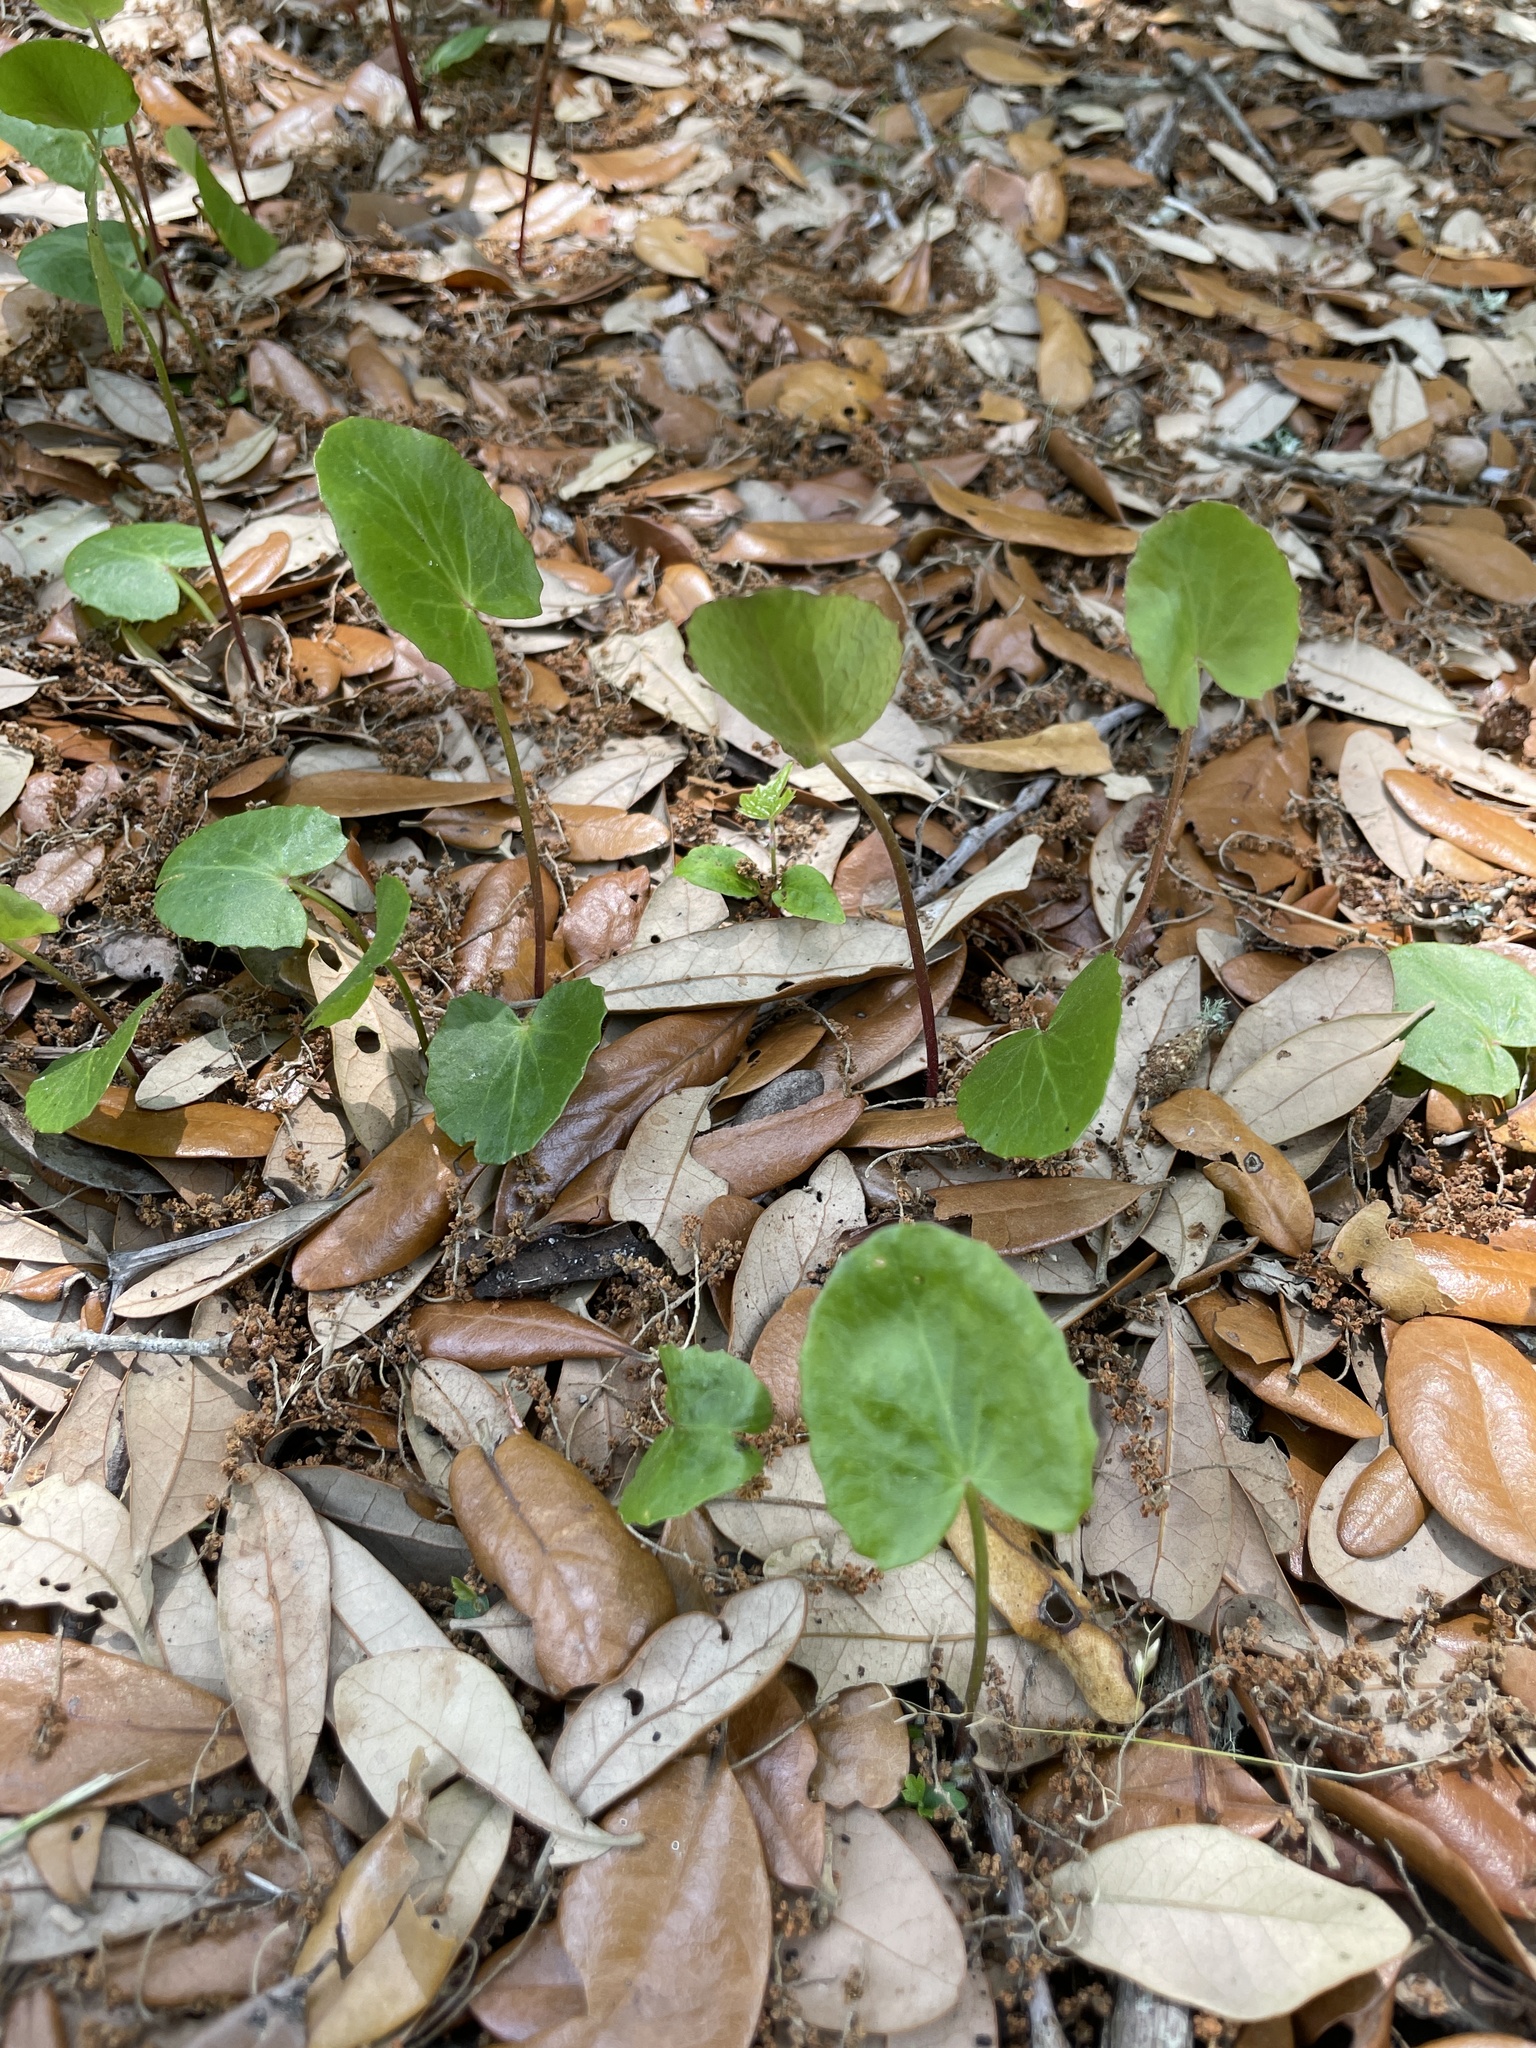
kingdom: Plantae
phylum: Tracheophyta
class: Magnoliopsida
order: Apiales
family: Apiaceae
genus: Centella
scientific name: Centella erecta
